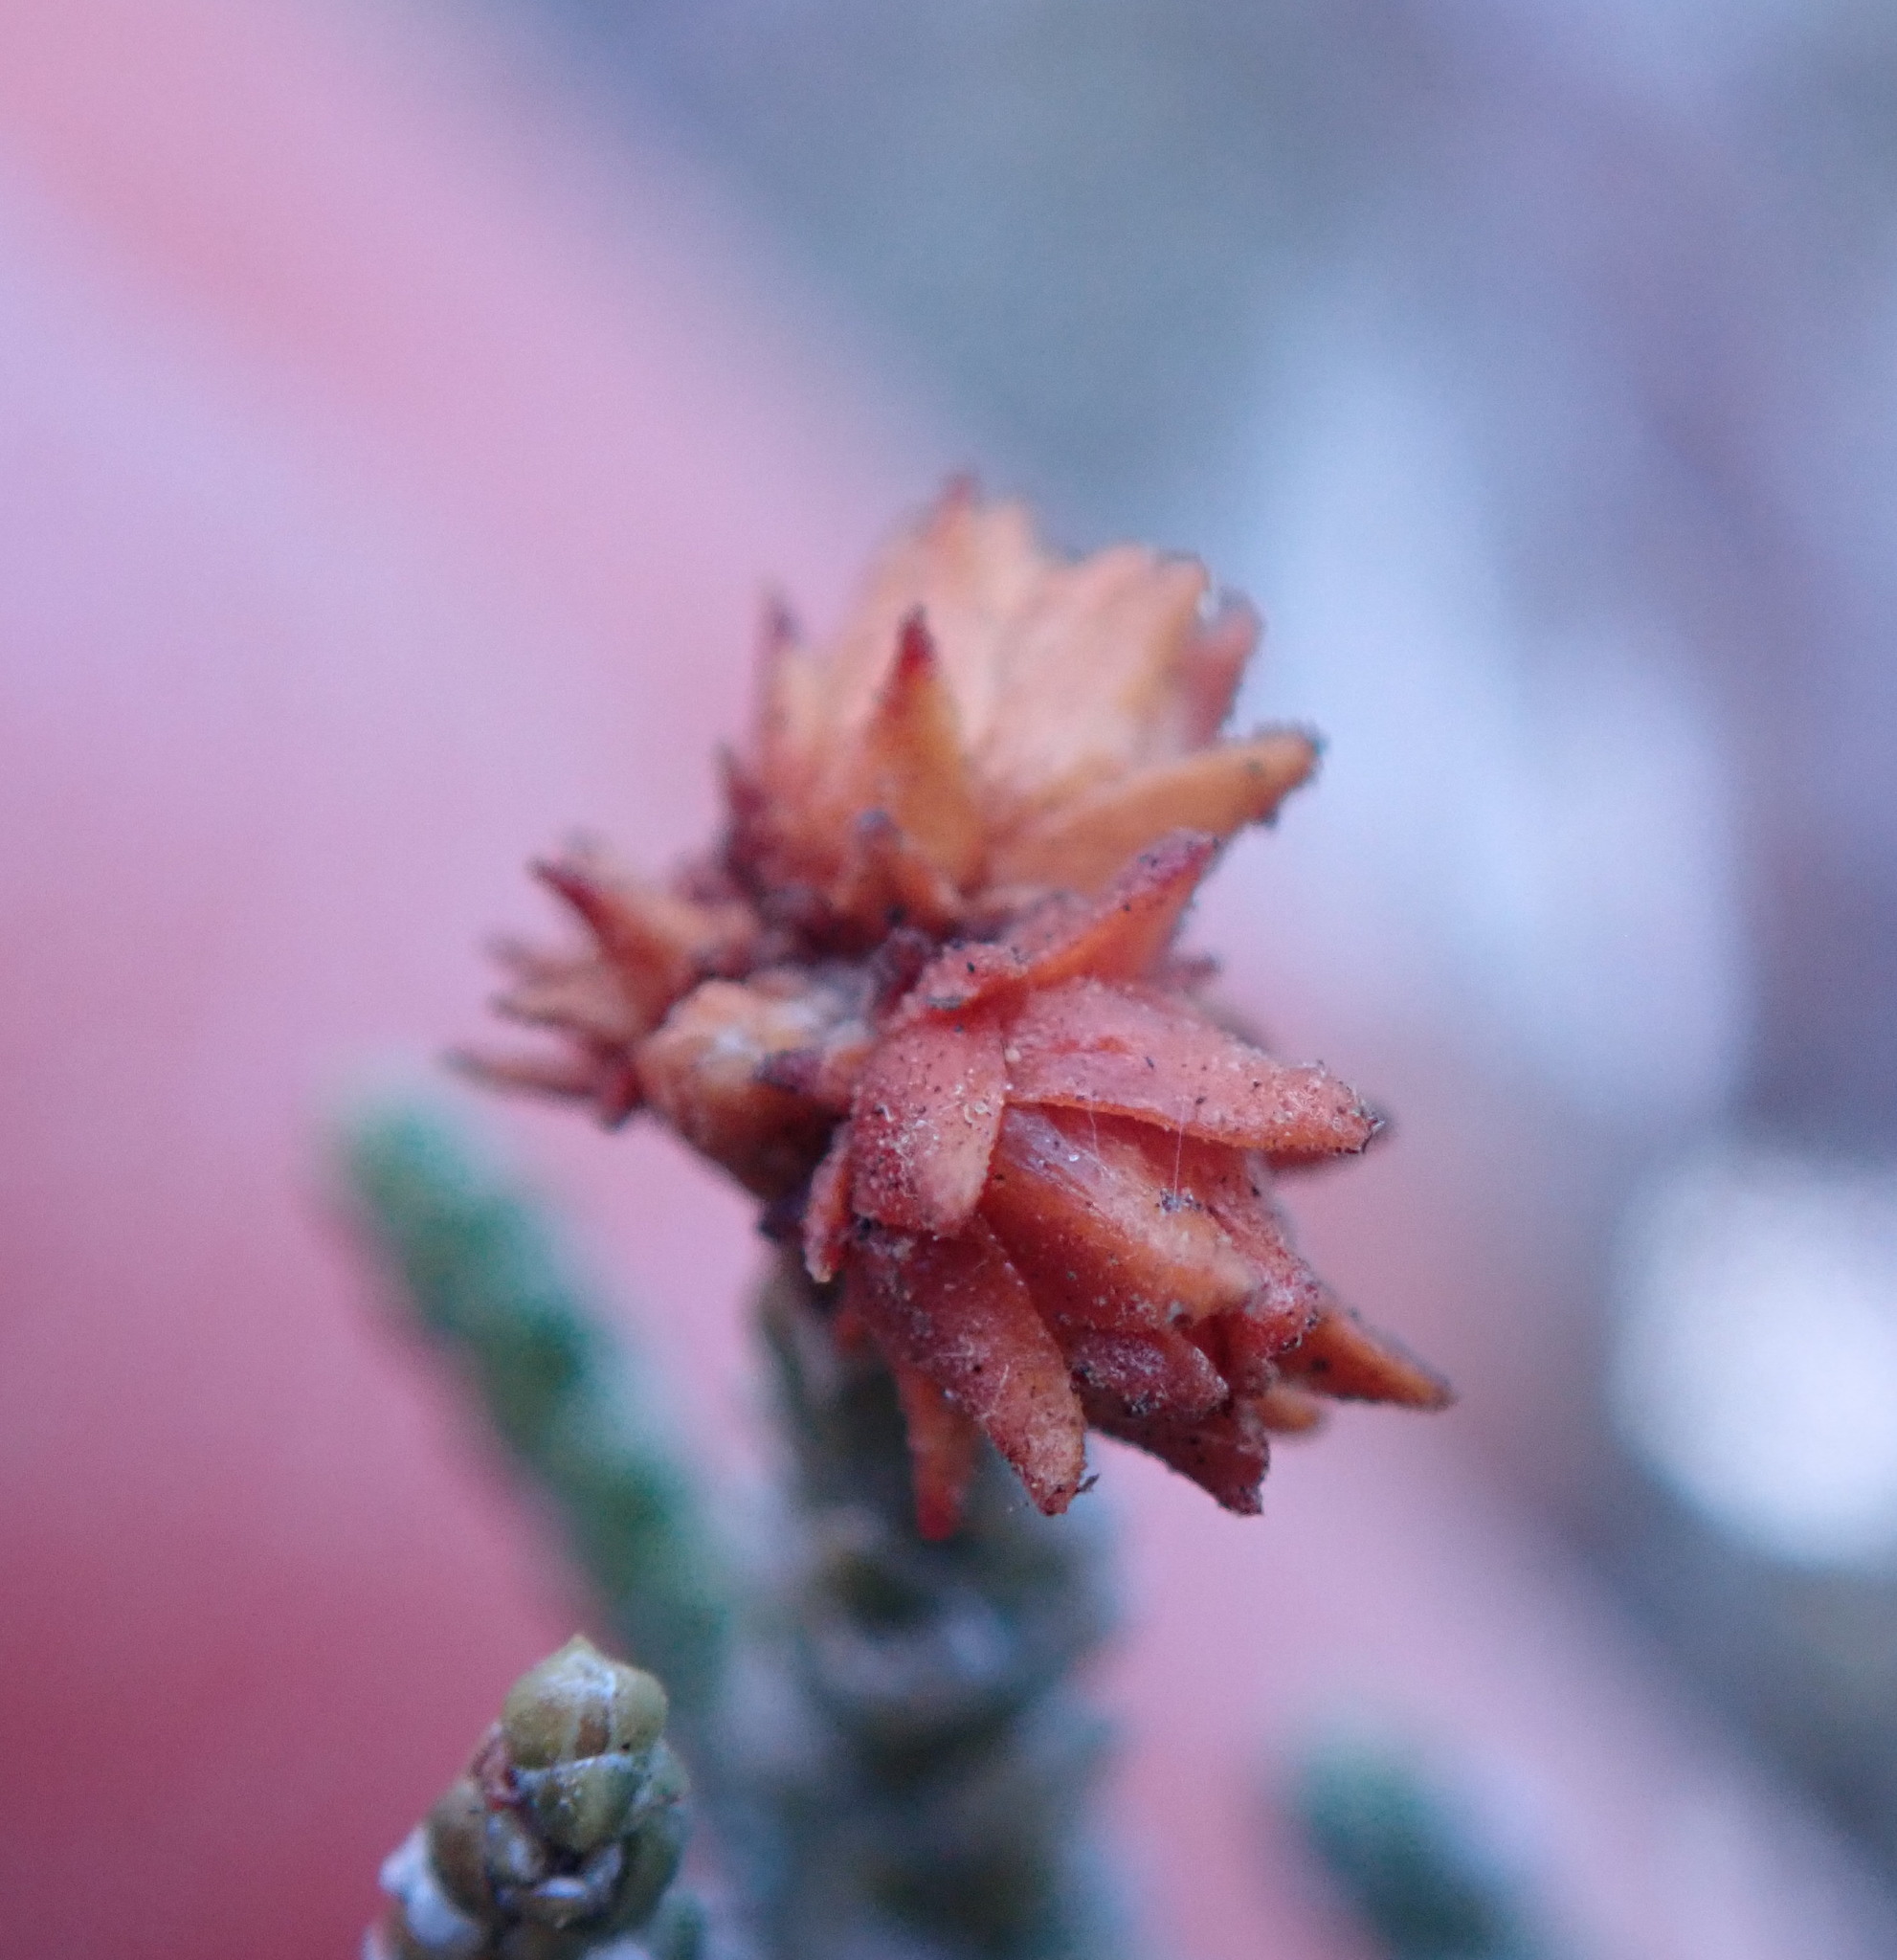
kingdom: Animalia
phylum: Arthropoda
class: Insecta
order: Diptera
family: Cecidomyiidae
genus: Oligotrophus
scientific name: Oligotrophus betheli
